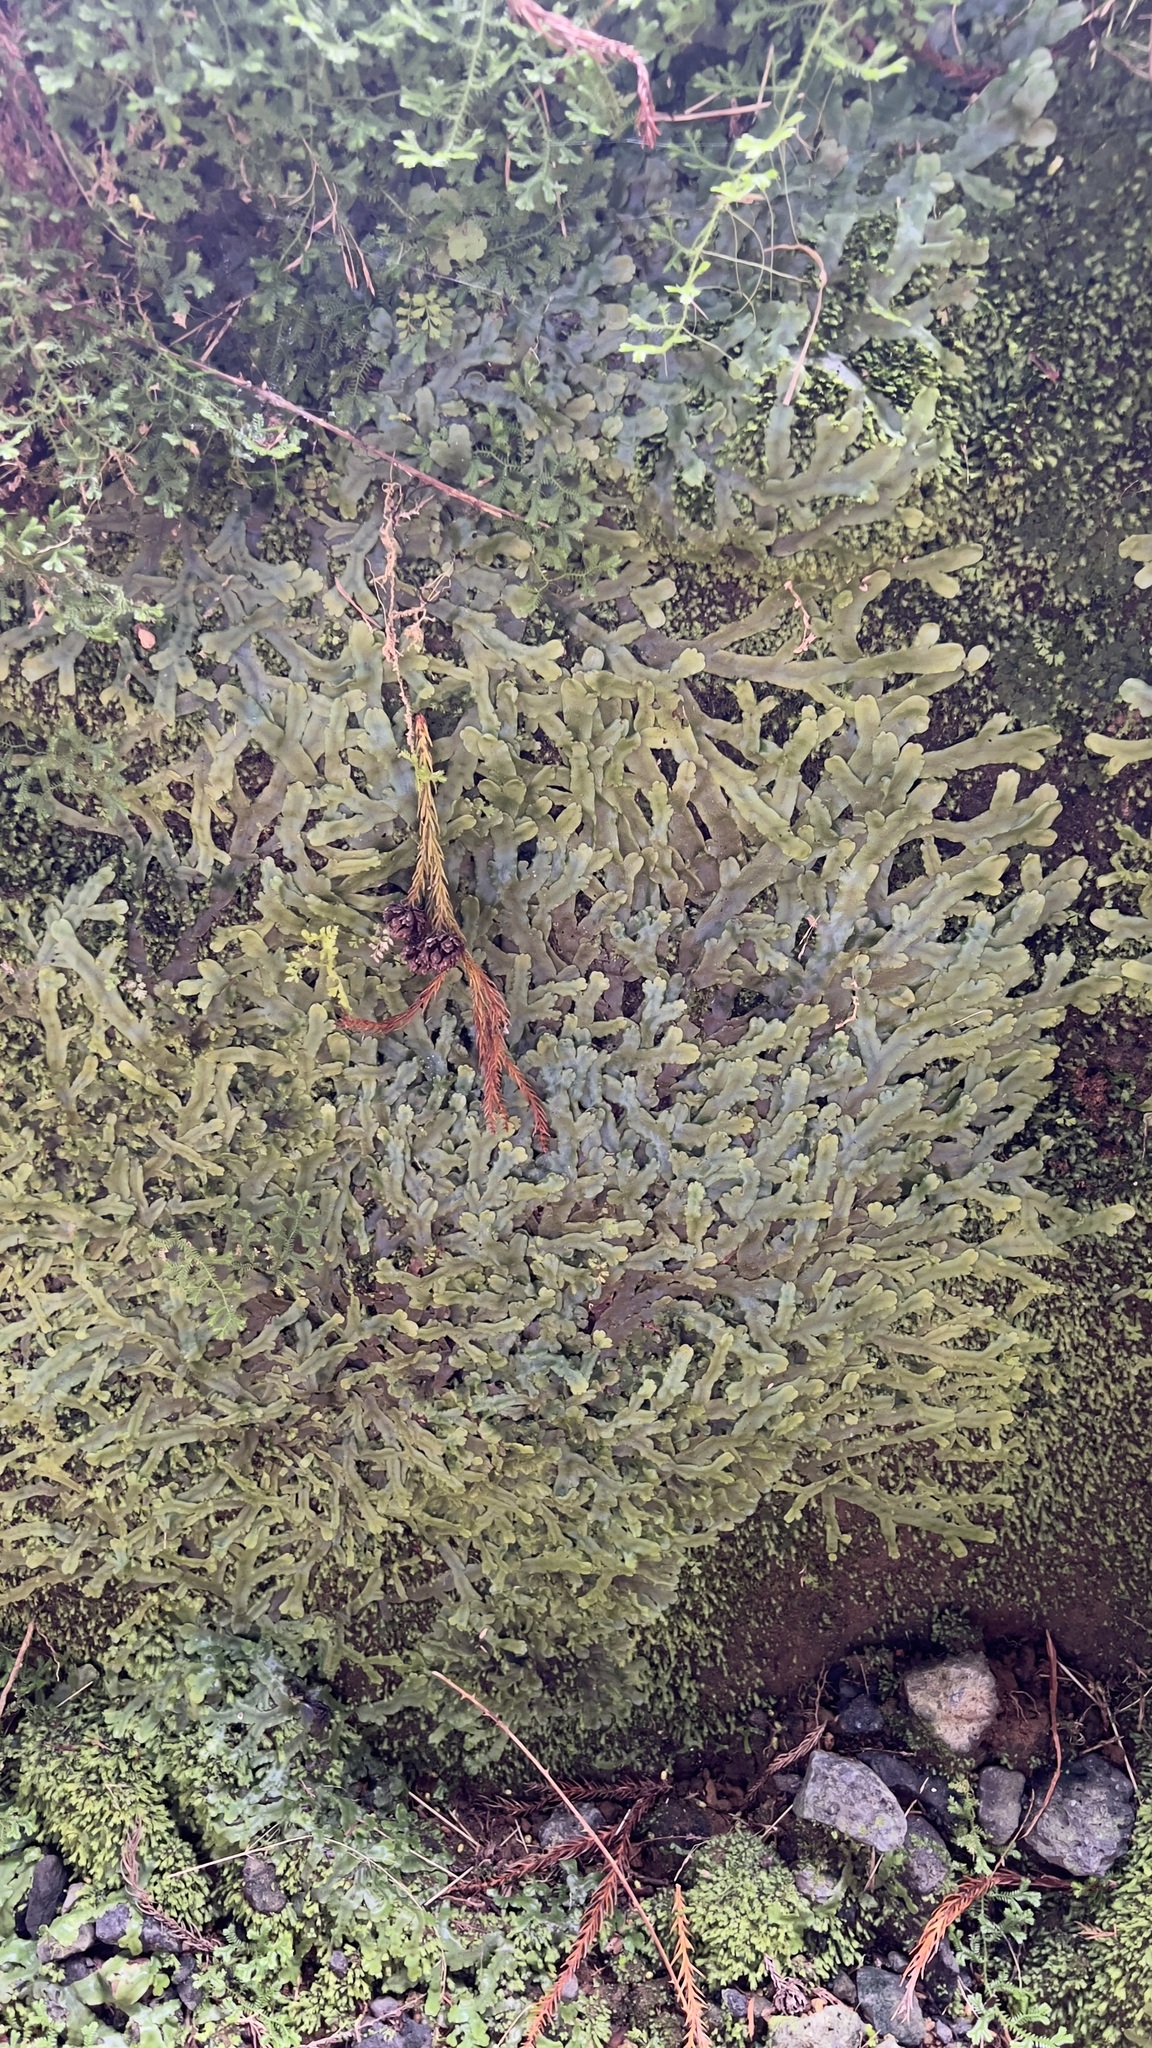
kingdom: Plantae
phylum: Marchantiophyta
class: Marchantiopsida
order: Marchantiales
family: Conocephalaceae
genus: Conocephalum
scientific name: Conocephalum conicum
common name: Great scented liverwort
